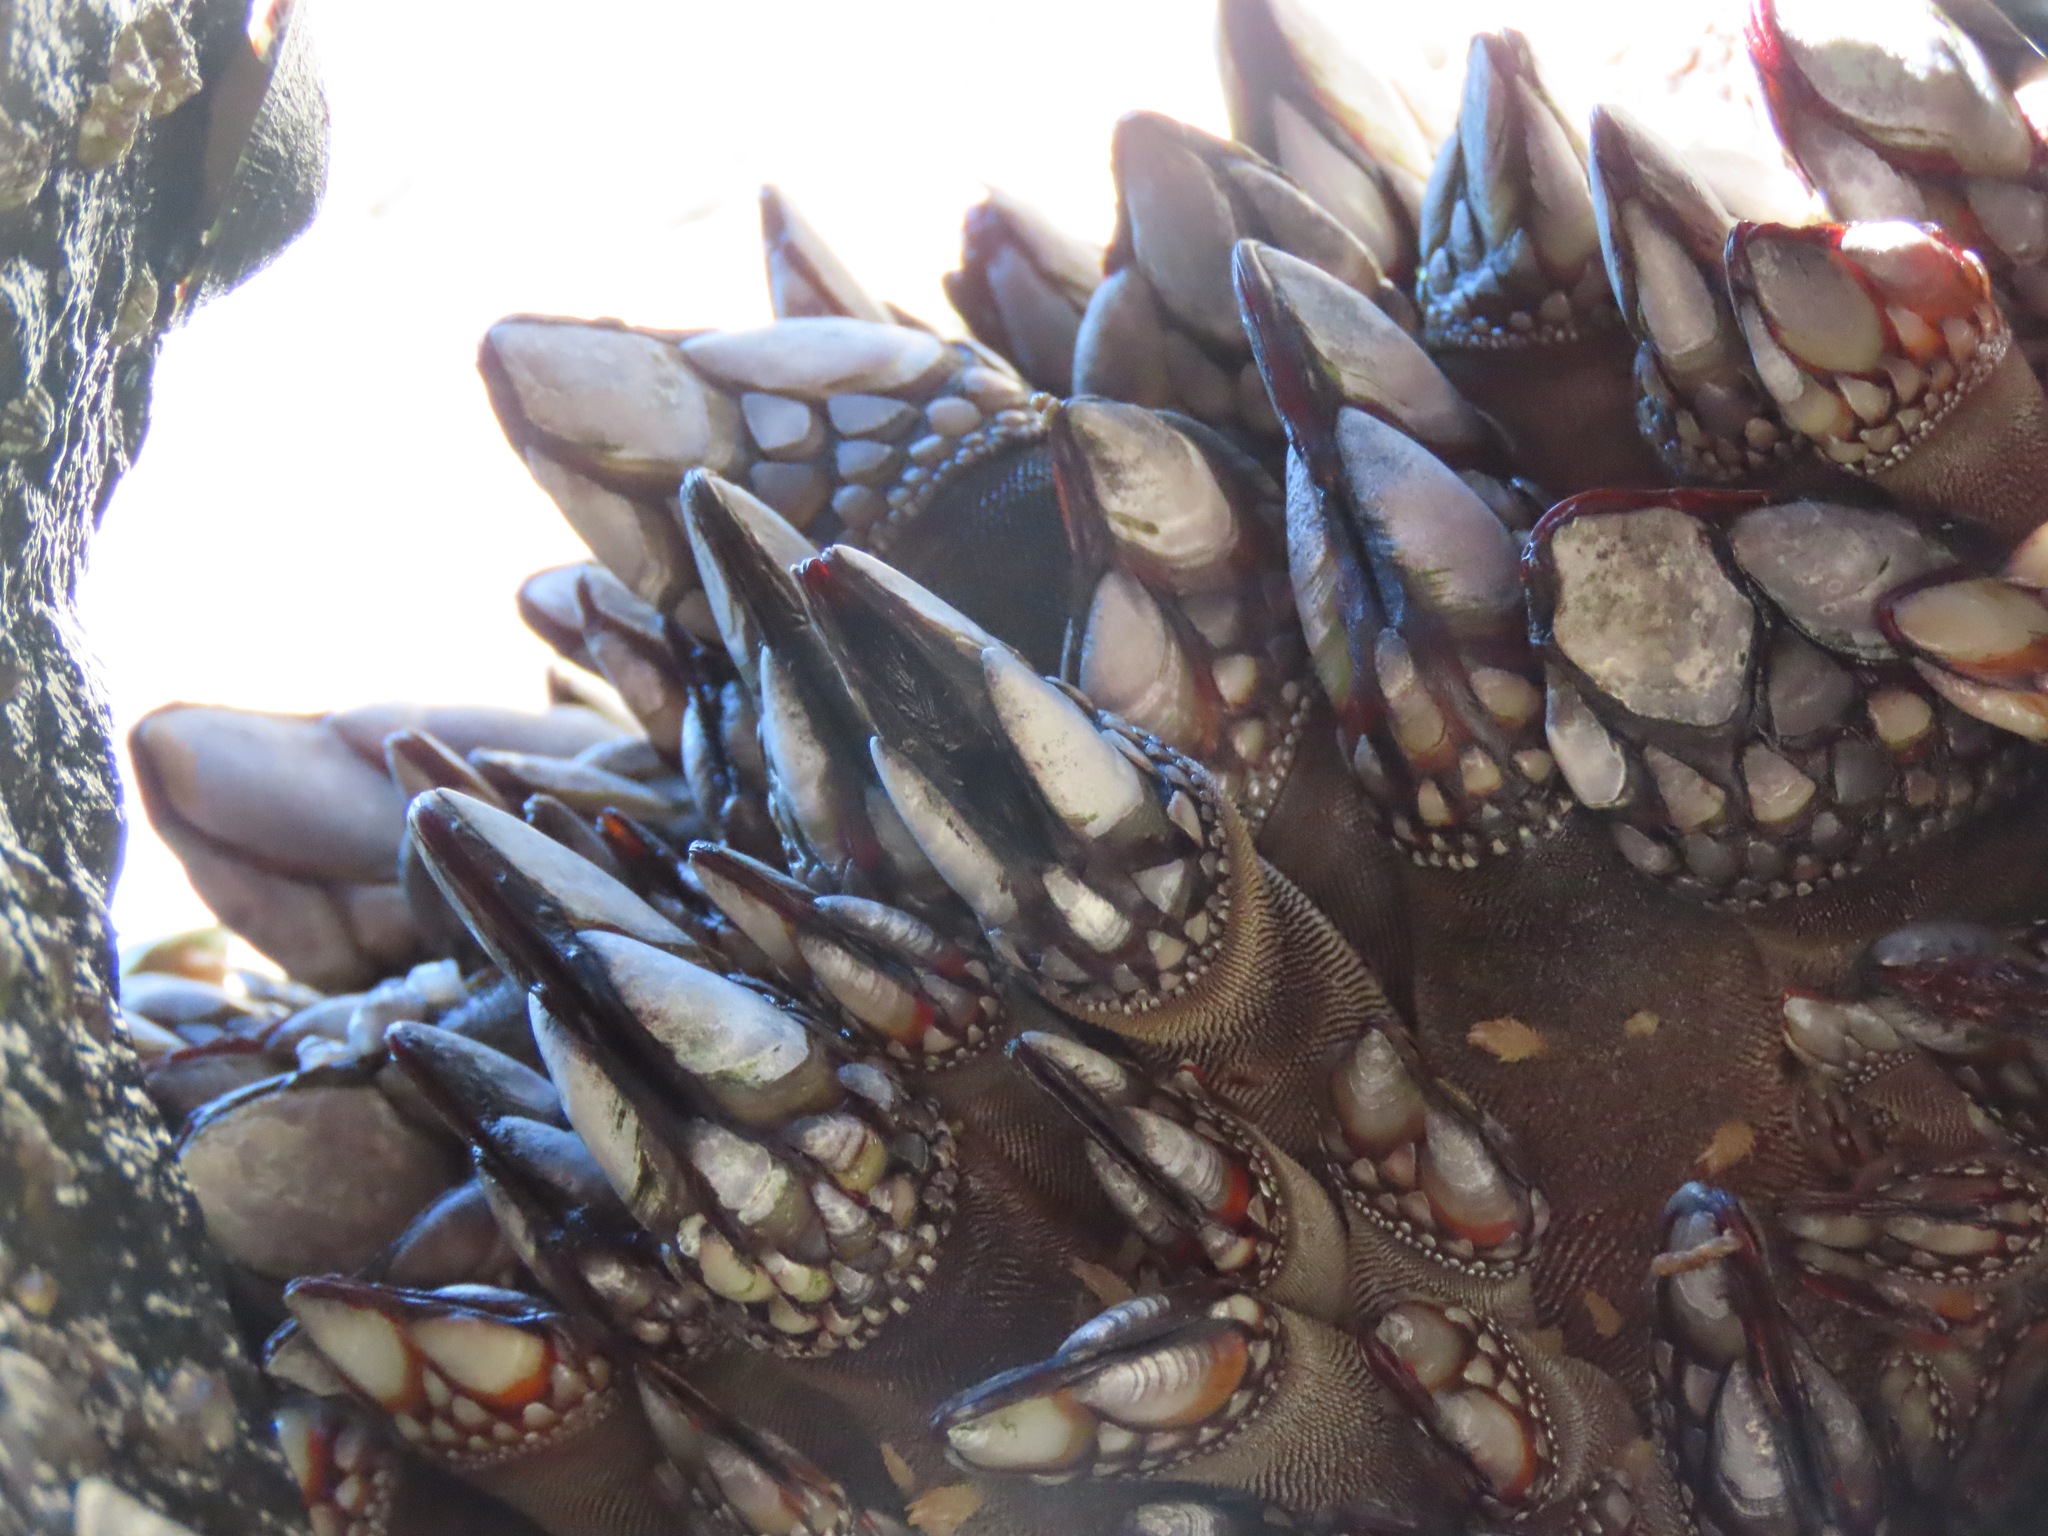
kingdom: Animalia
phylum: Arthropoda
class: Maxillopoda
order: Pedunculata
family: Pollicipedidae
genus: Pollicipes
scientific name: Pollicipes polymerus
